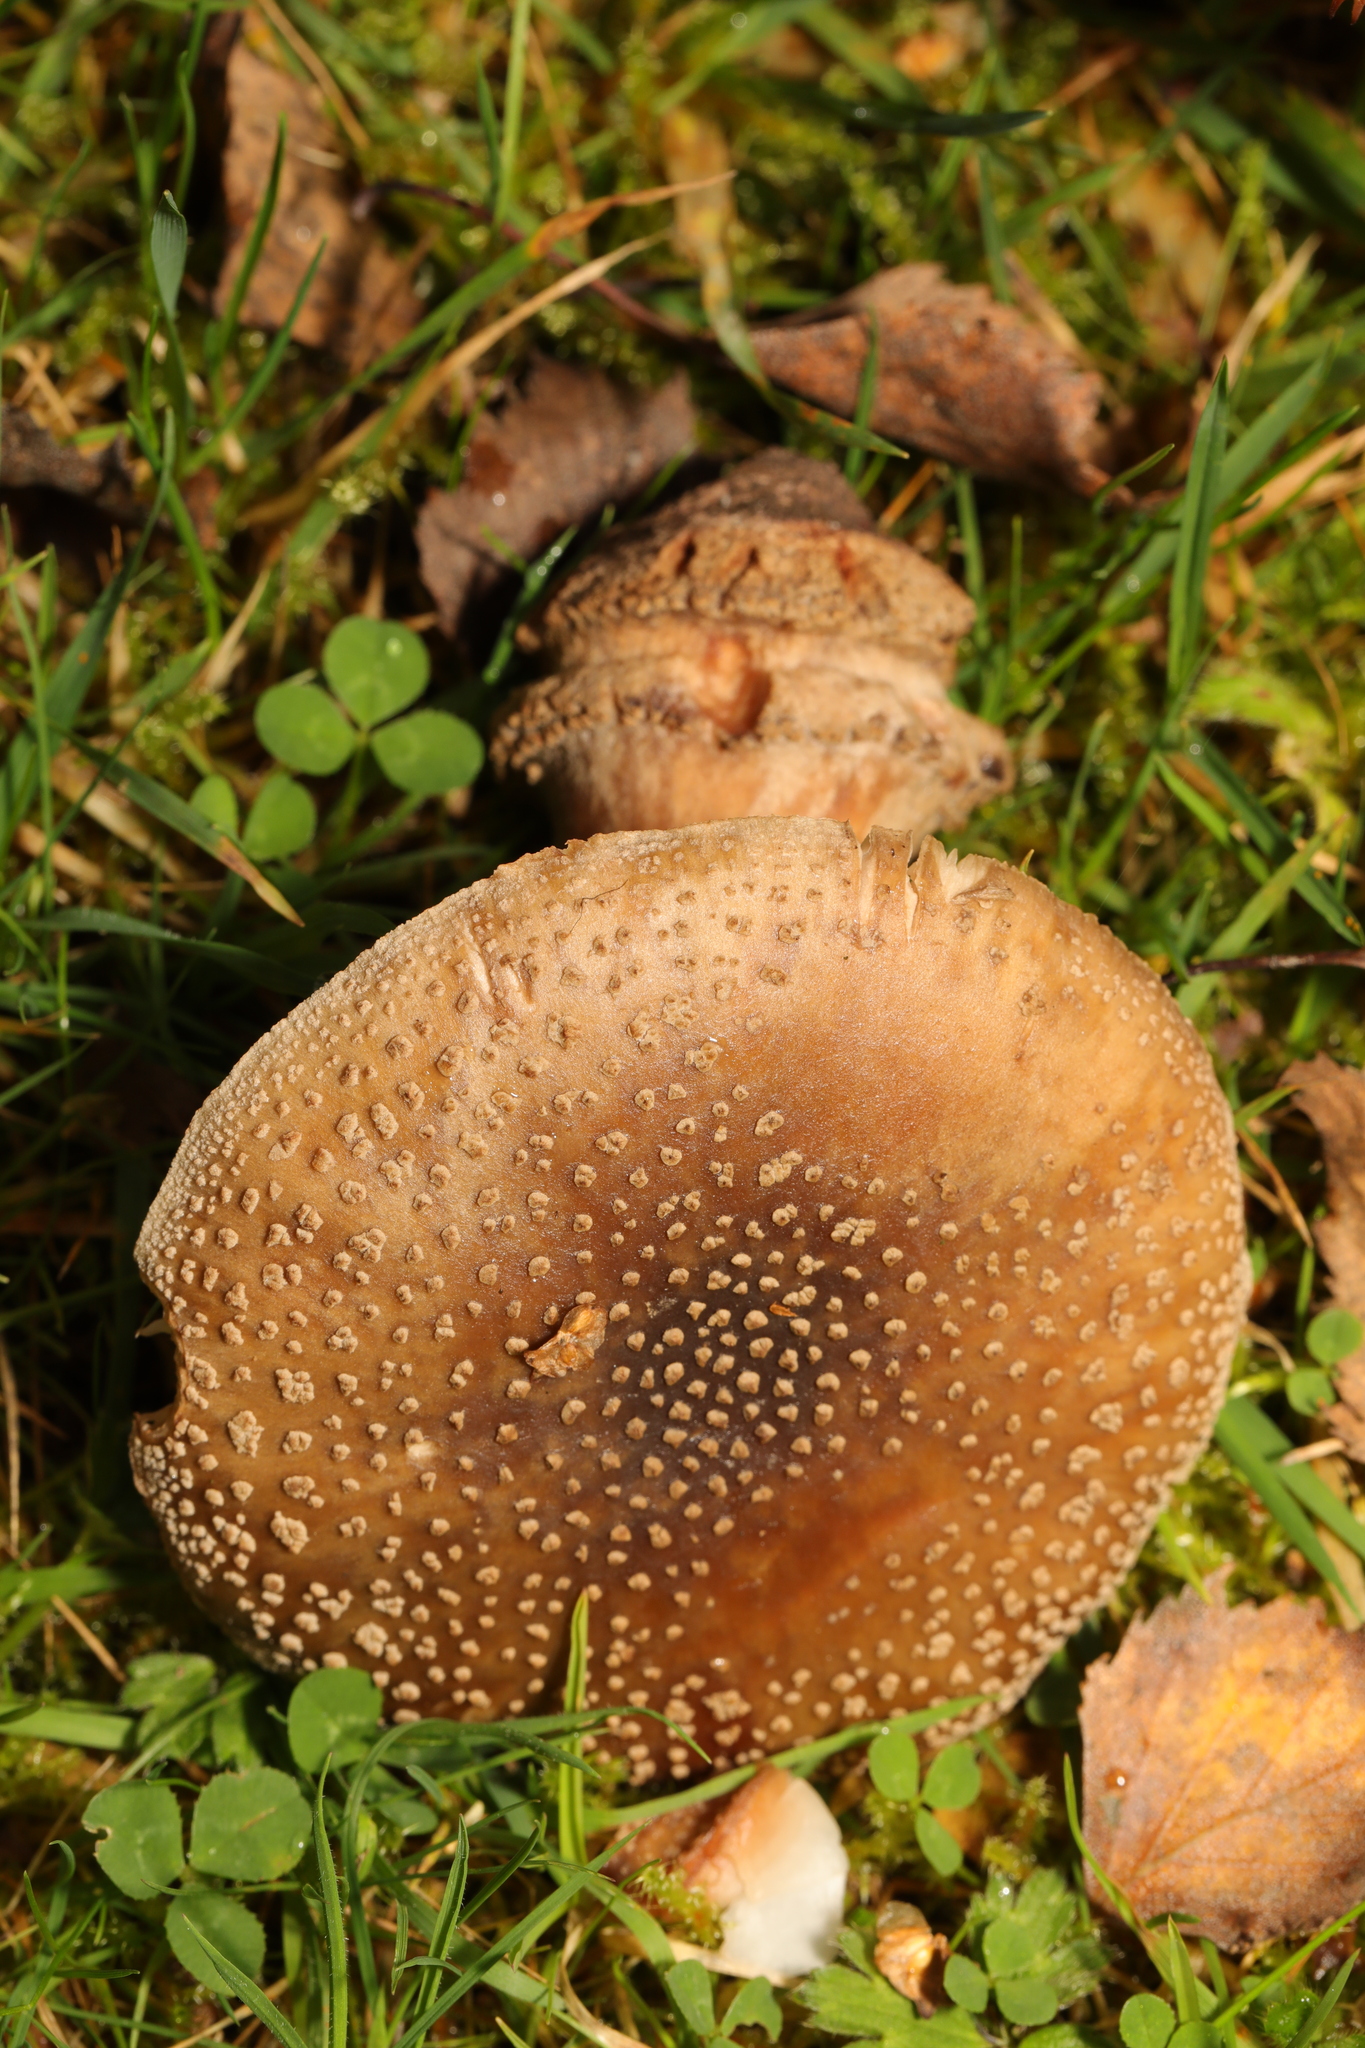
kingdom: Fungi
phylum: Basidiomycota
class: Agaricomycetes
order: Agaricales
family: Amanitaceae
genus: Amanita
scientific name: Amanita rubescens
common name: Blusher
